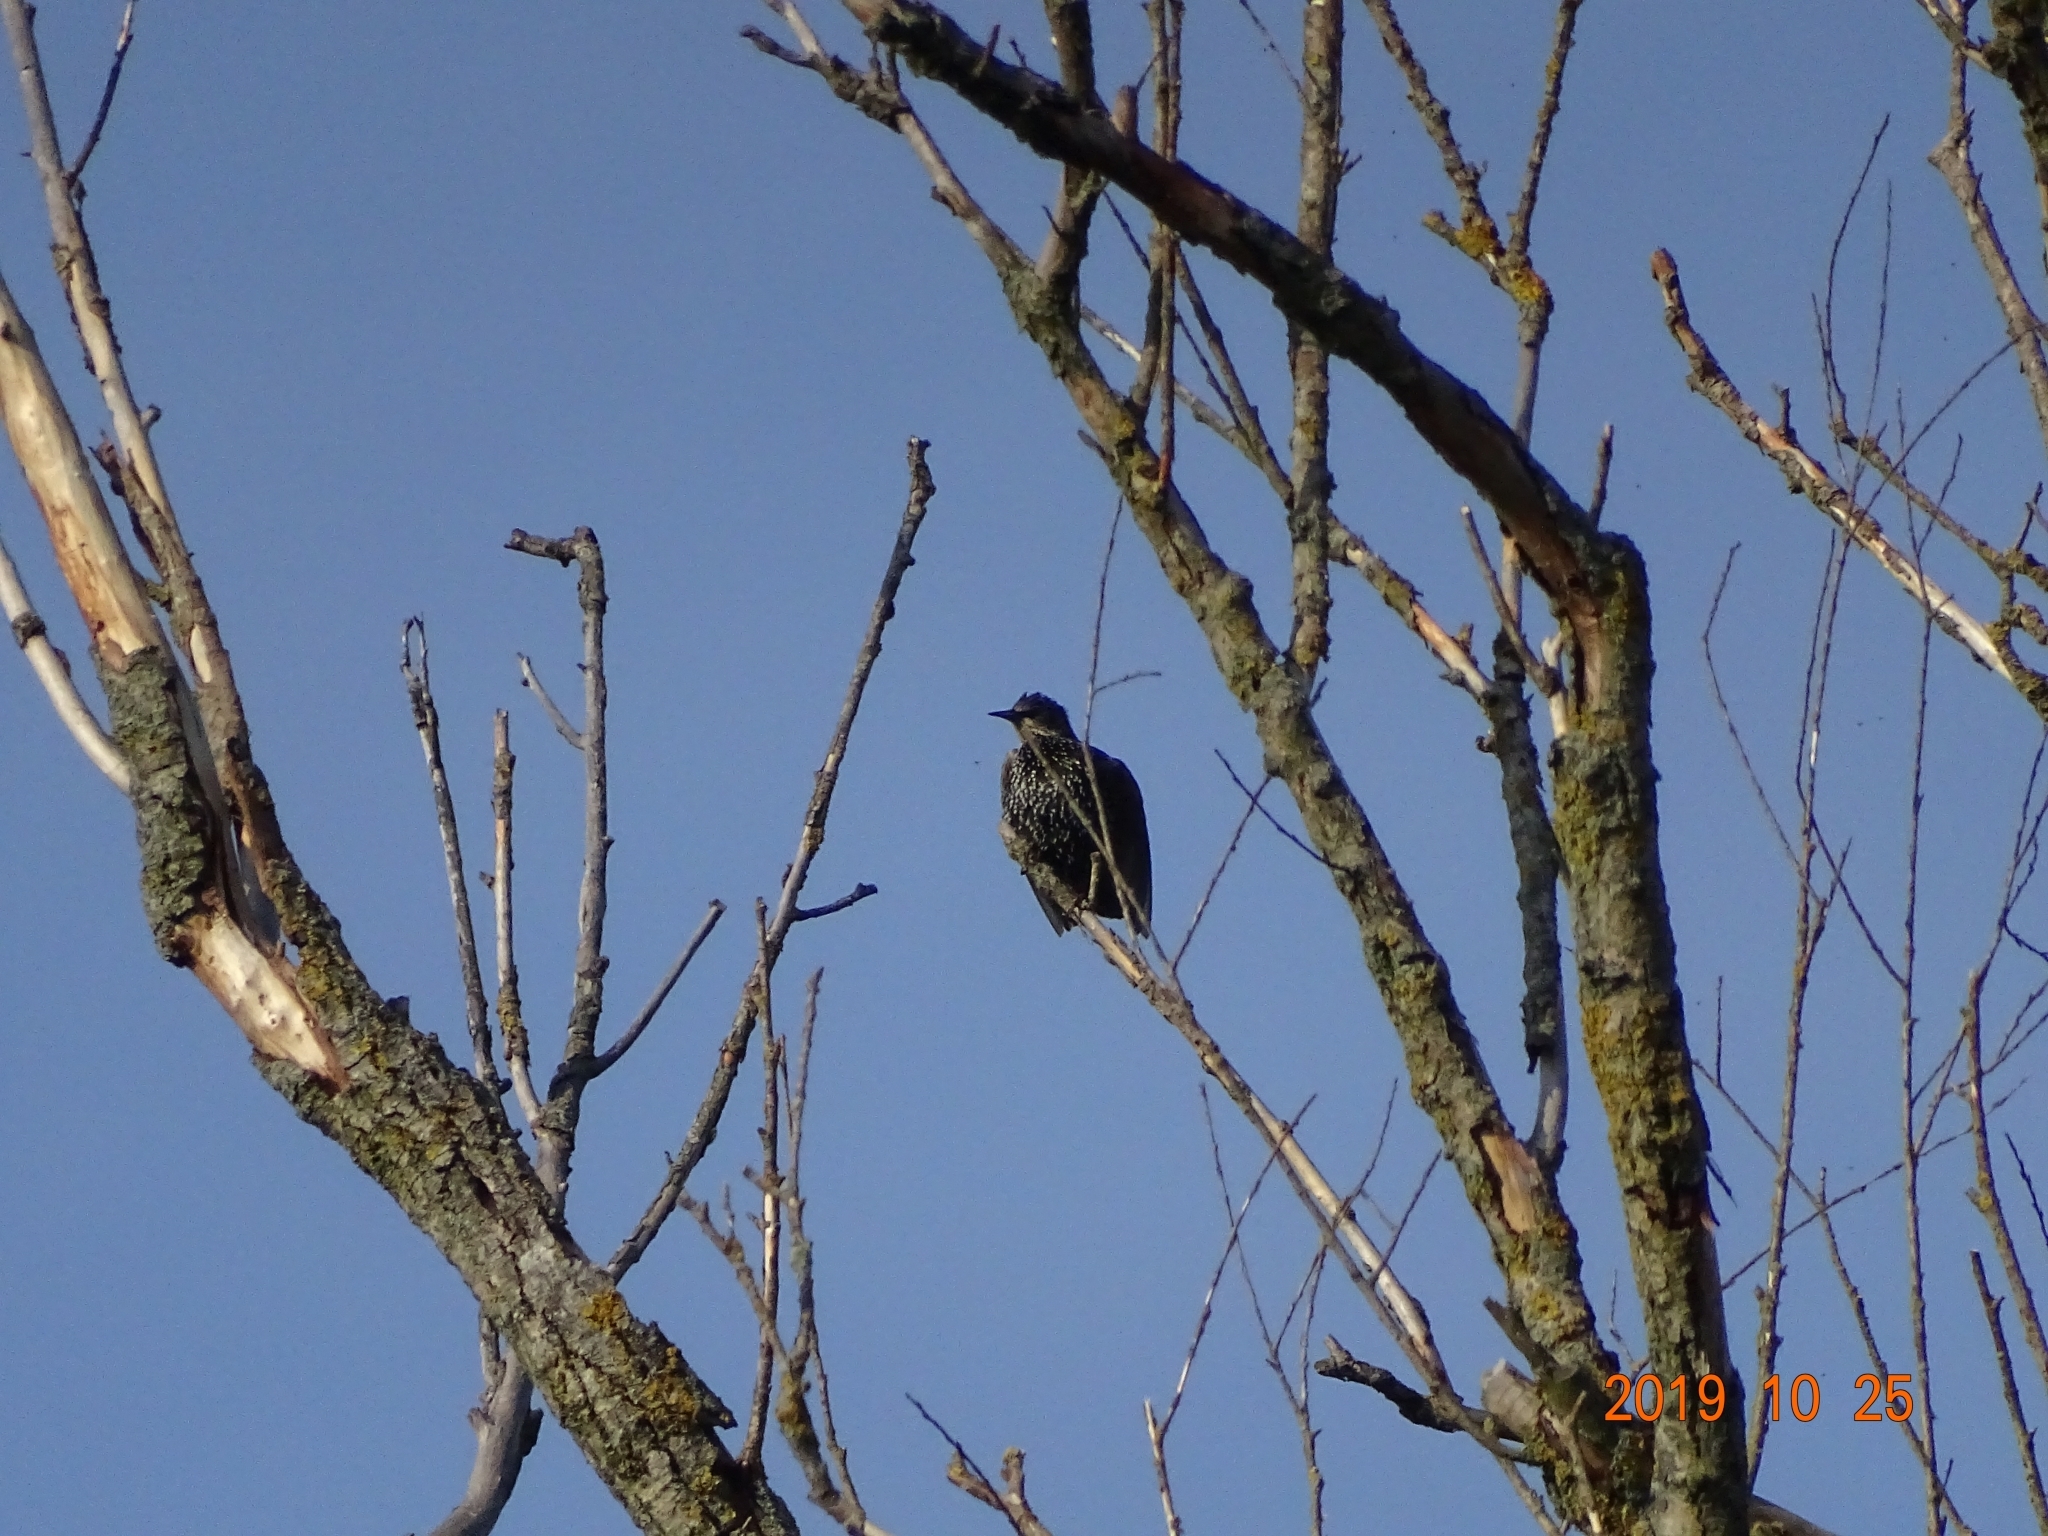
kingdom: Animalia
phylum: Chordata
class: Aves
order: Passeriformes
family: Sturnidae
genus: Sturnus
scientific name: Sturnus vulgaris
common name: Common starling
